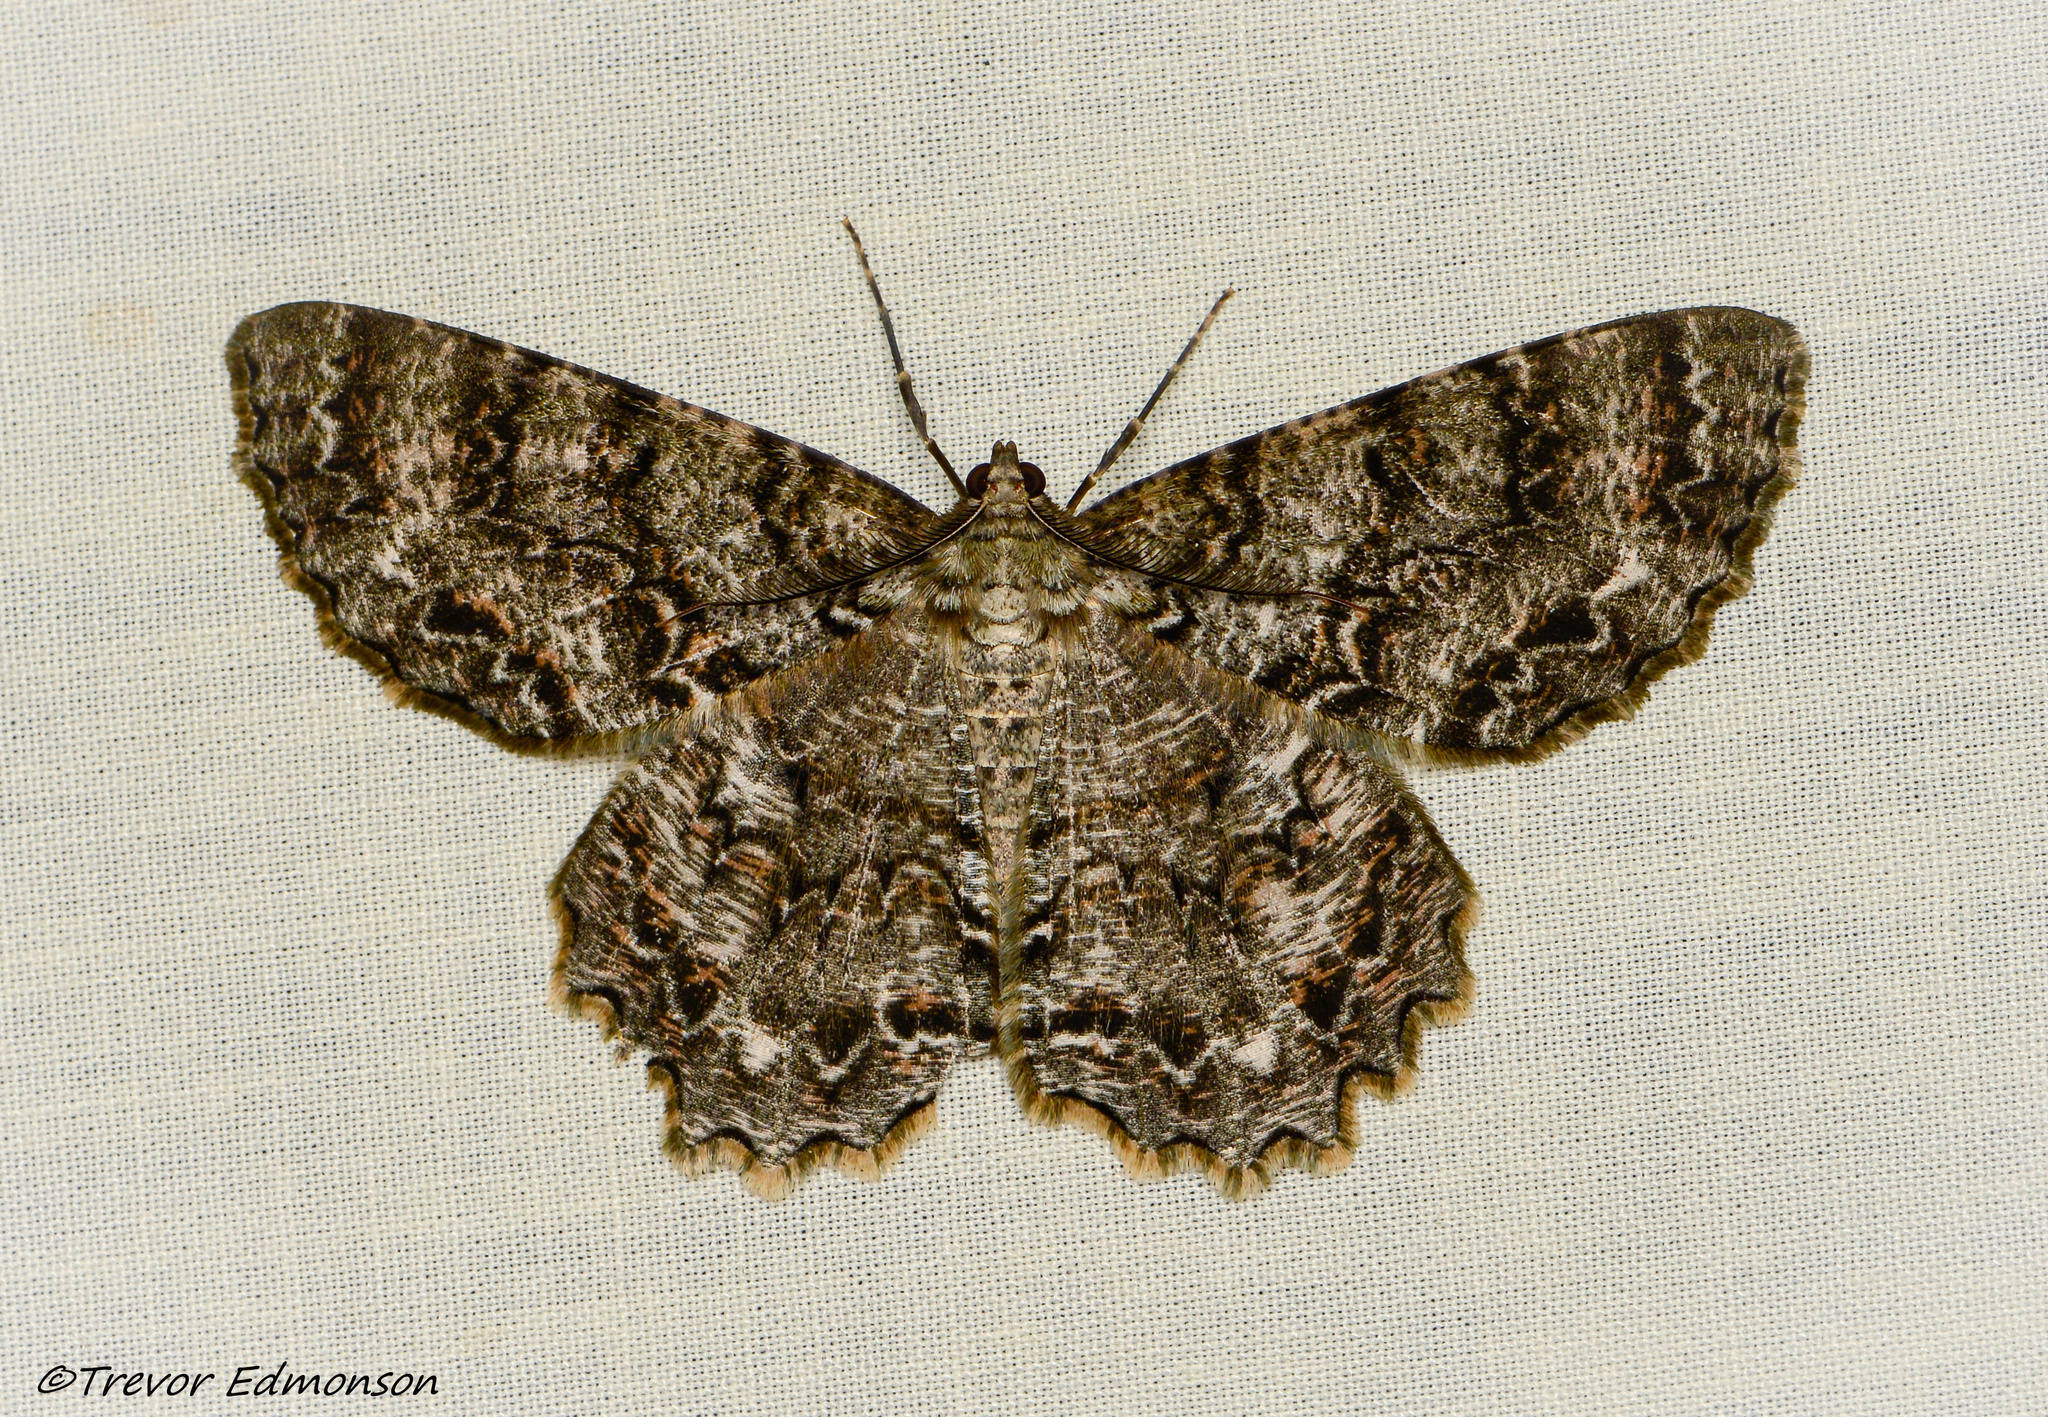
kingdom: Animalia
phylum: Arthropoda
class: Insecta
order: Lepidoptera
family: Geometridae
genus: Epimecis
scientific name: Epimecis hortaria
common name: Tulip-tree beauty
